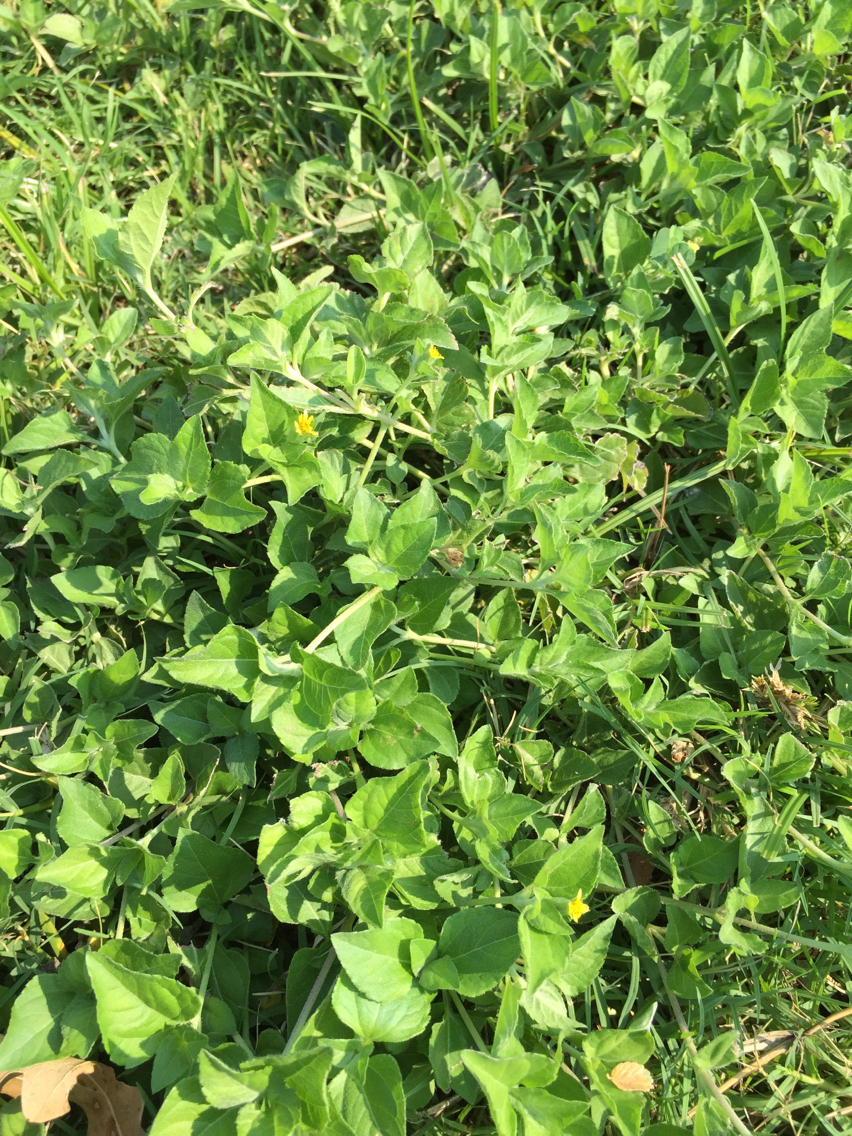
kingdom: Plantae
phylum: Tracheophyta
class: Magnoliopsida
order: Asterales
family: Asteraceae
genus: Calyptocarpus
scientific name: Calyptocarpus vialis
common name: Straggler daisy
